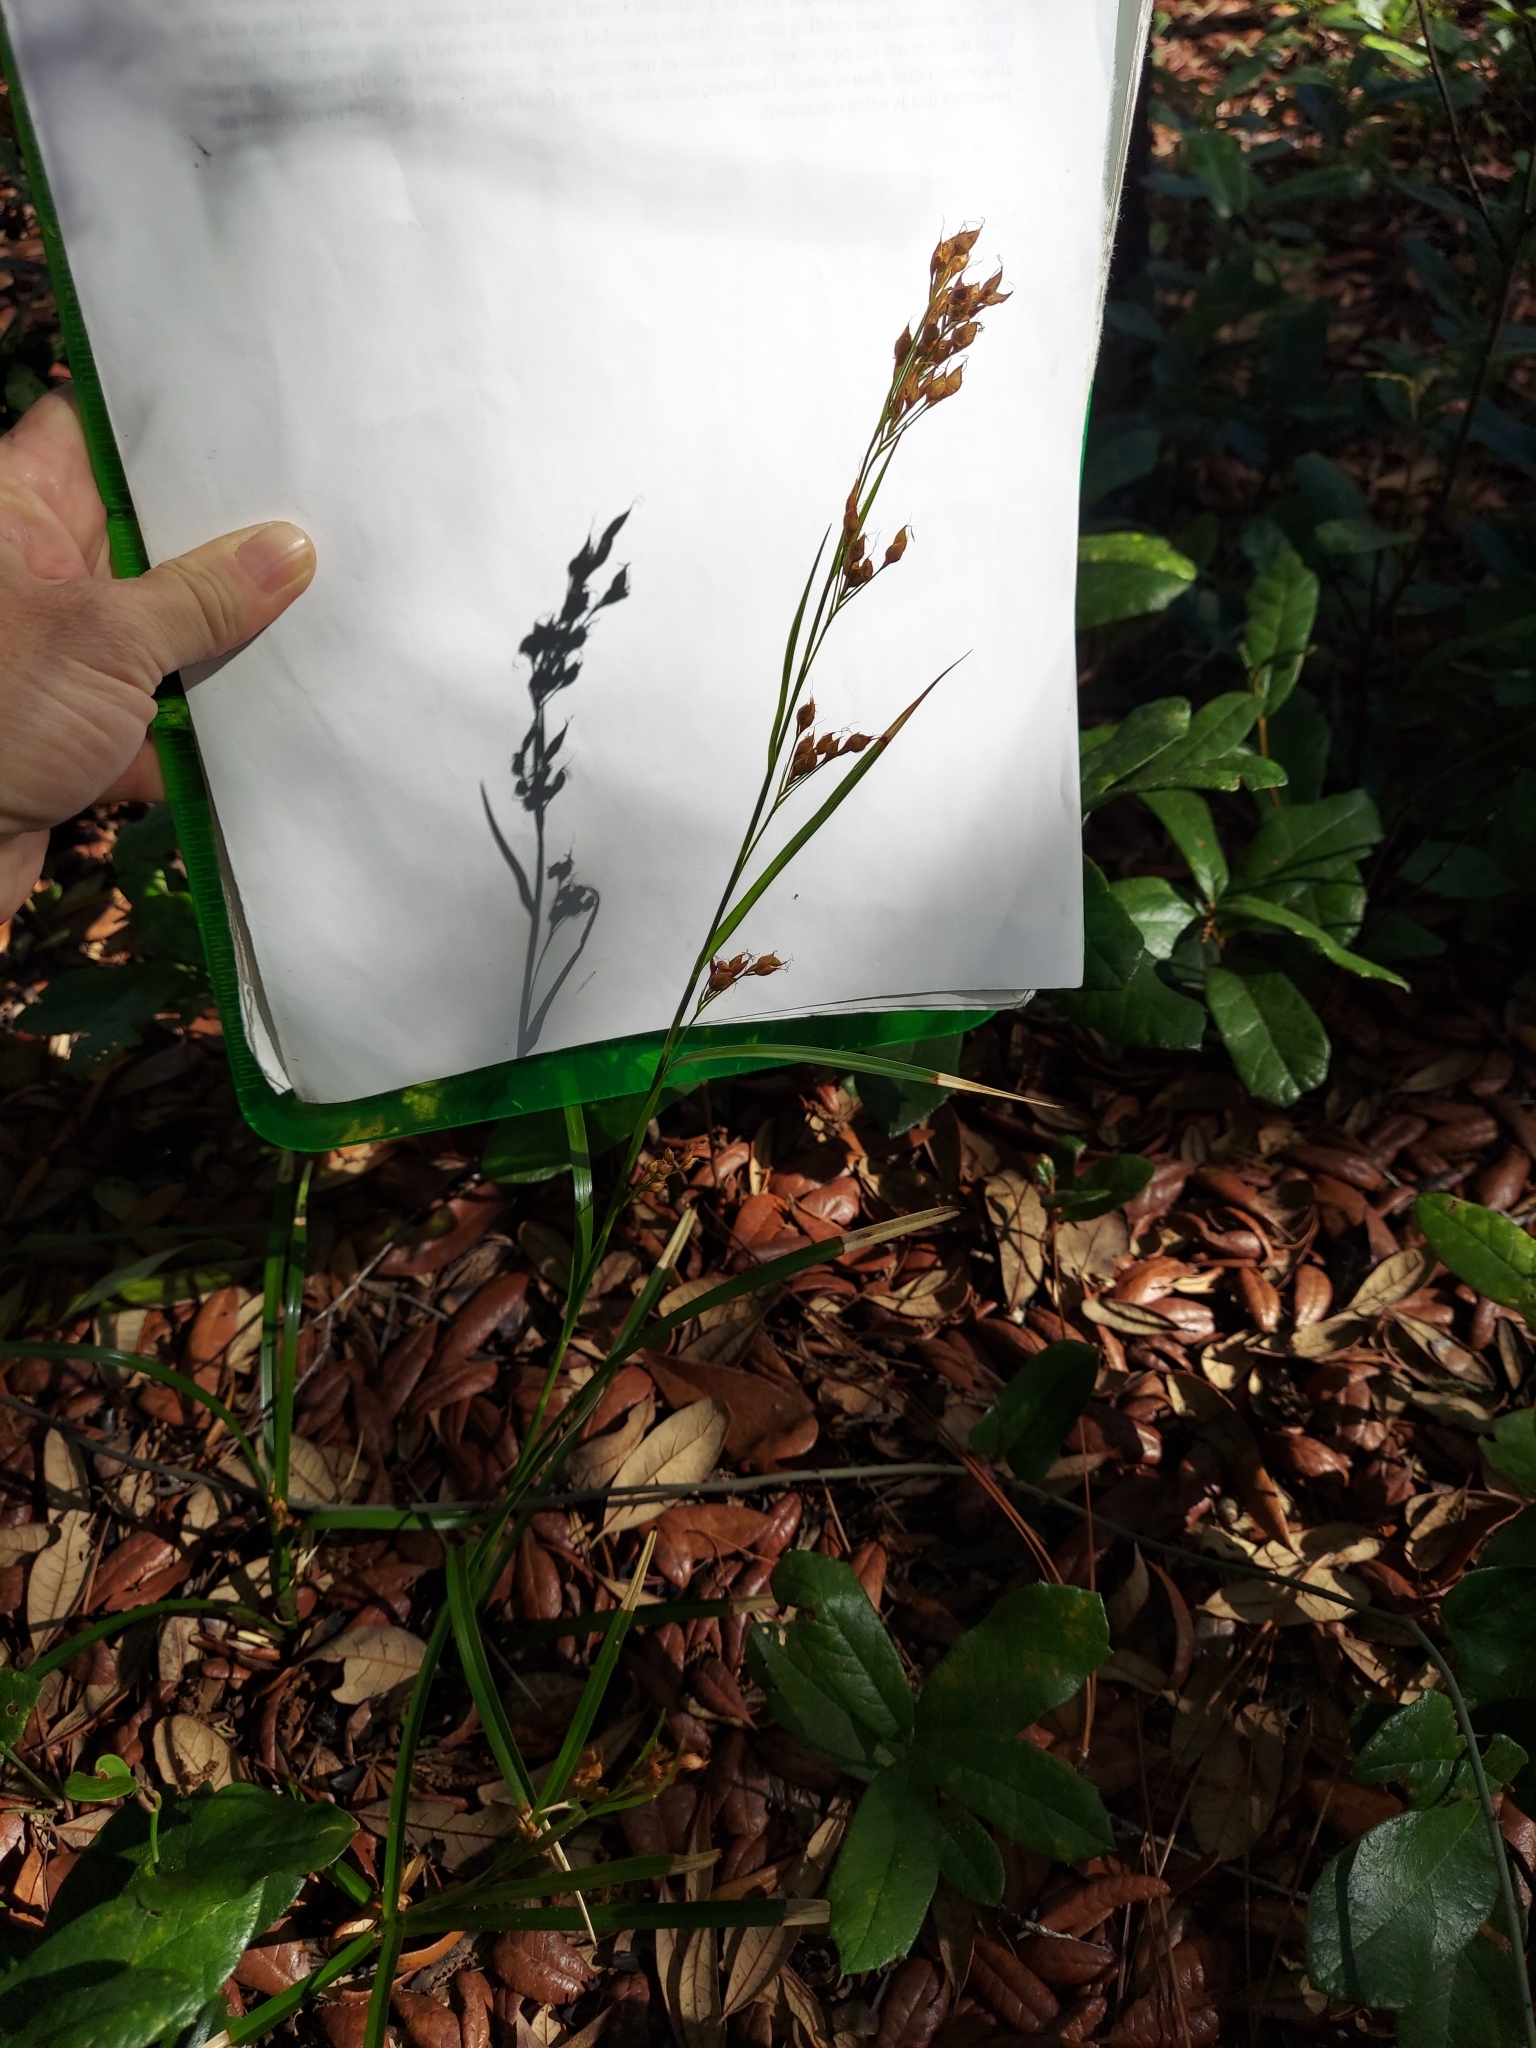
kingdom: Plantae
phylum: Tracheophyta
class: Liliopsida
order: Poales
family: Cyperaceae
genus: Rhynchospora
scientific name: Rhynchospora megalocarpa
